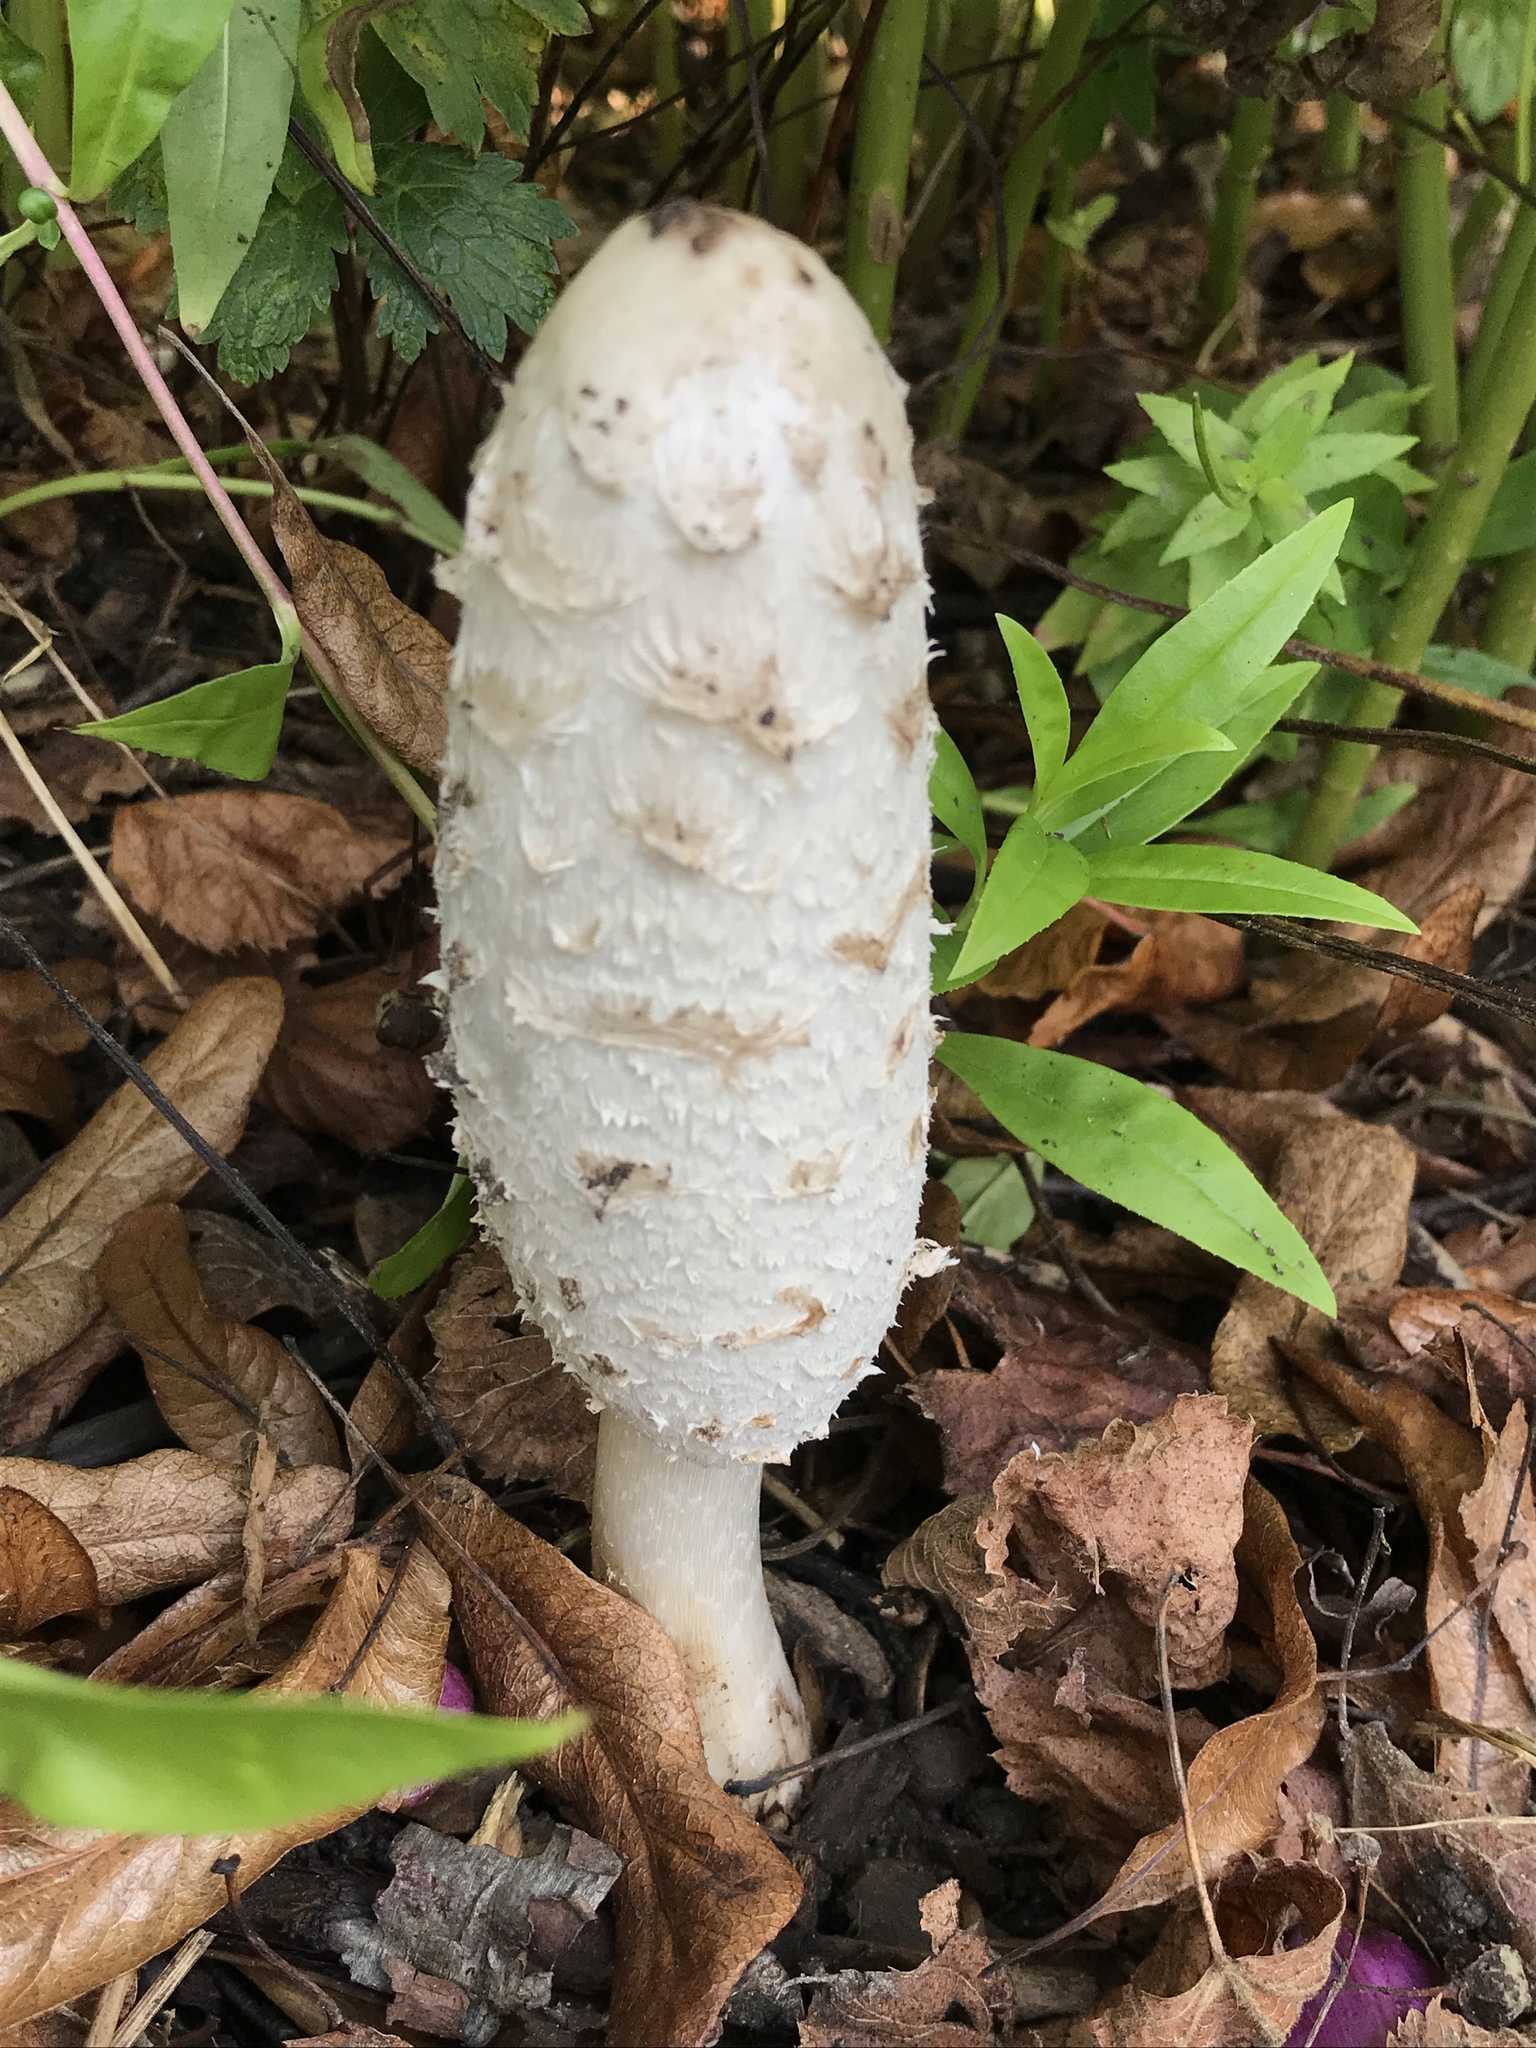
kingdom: Fungi
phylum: Basidiomycota
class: Agaricomycetes
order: Agaricales
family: Agaricaceae
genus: Coprinus
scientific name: Coprinus comatus
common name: Lawyer's wig
